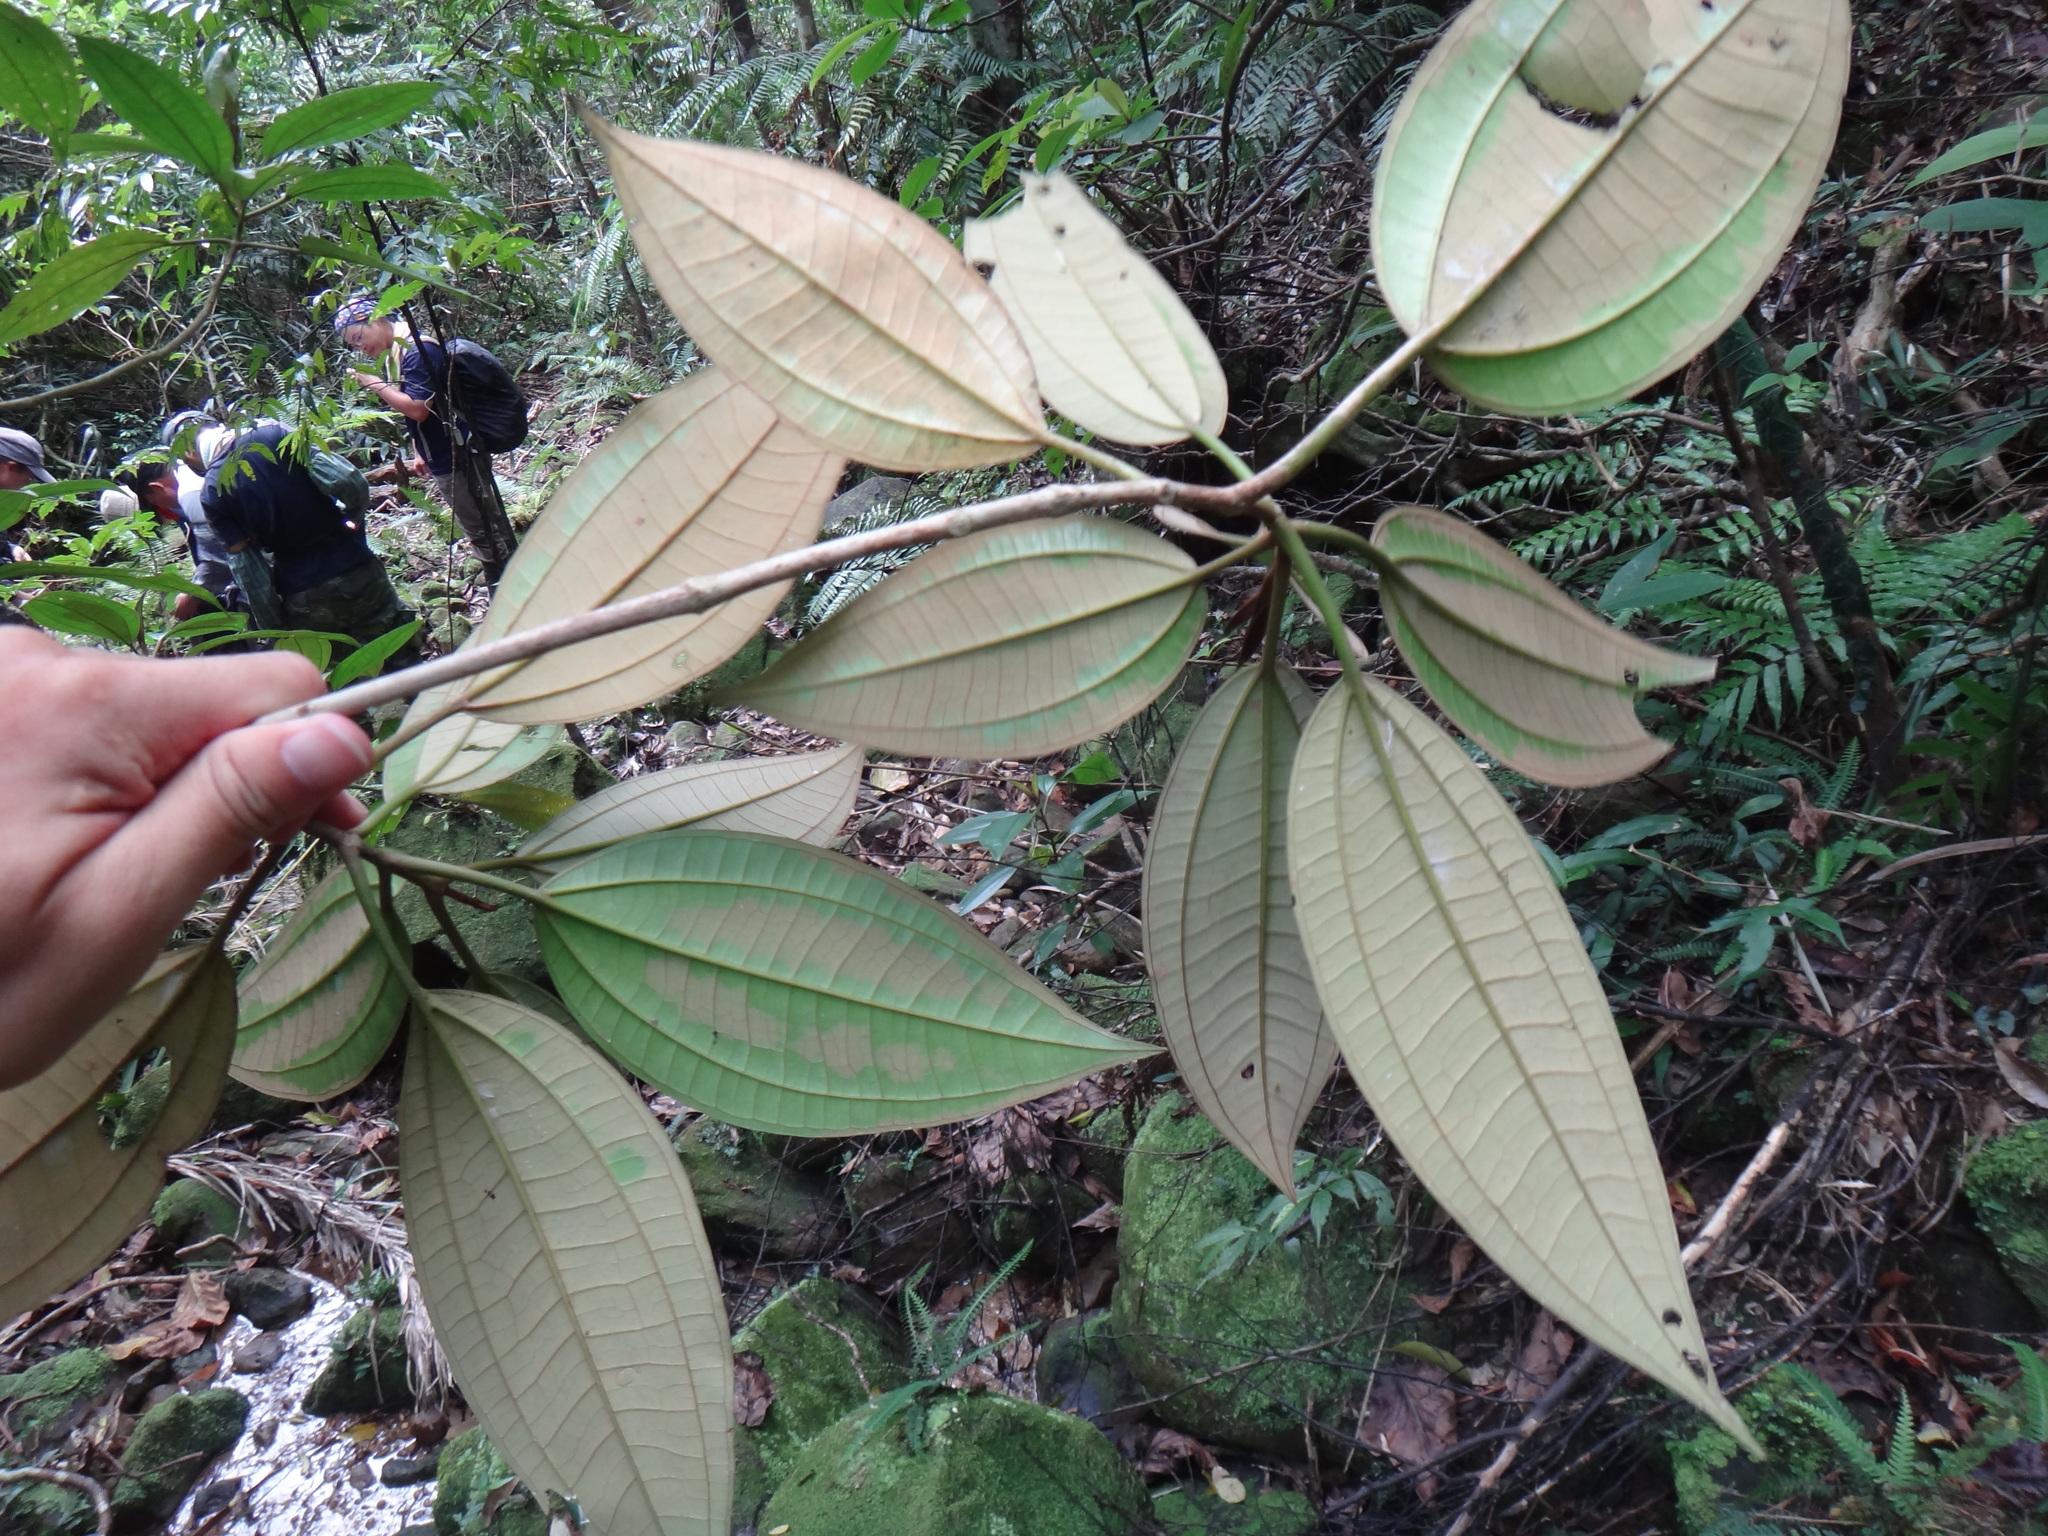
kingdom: Plantae
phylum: Tracheophyta
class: Magnoliopsida
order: Myrtales
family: Melastomataceae
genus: Astronia
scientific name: Astronia ferruginea
